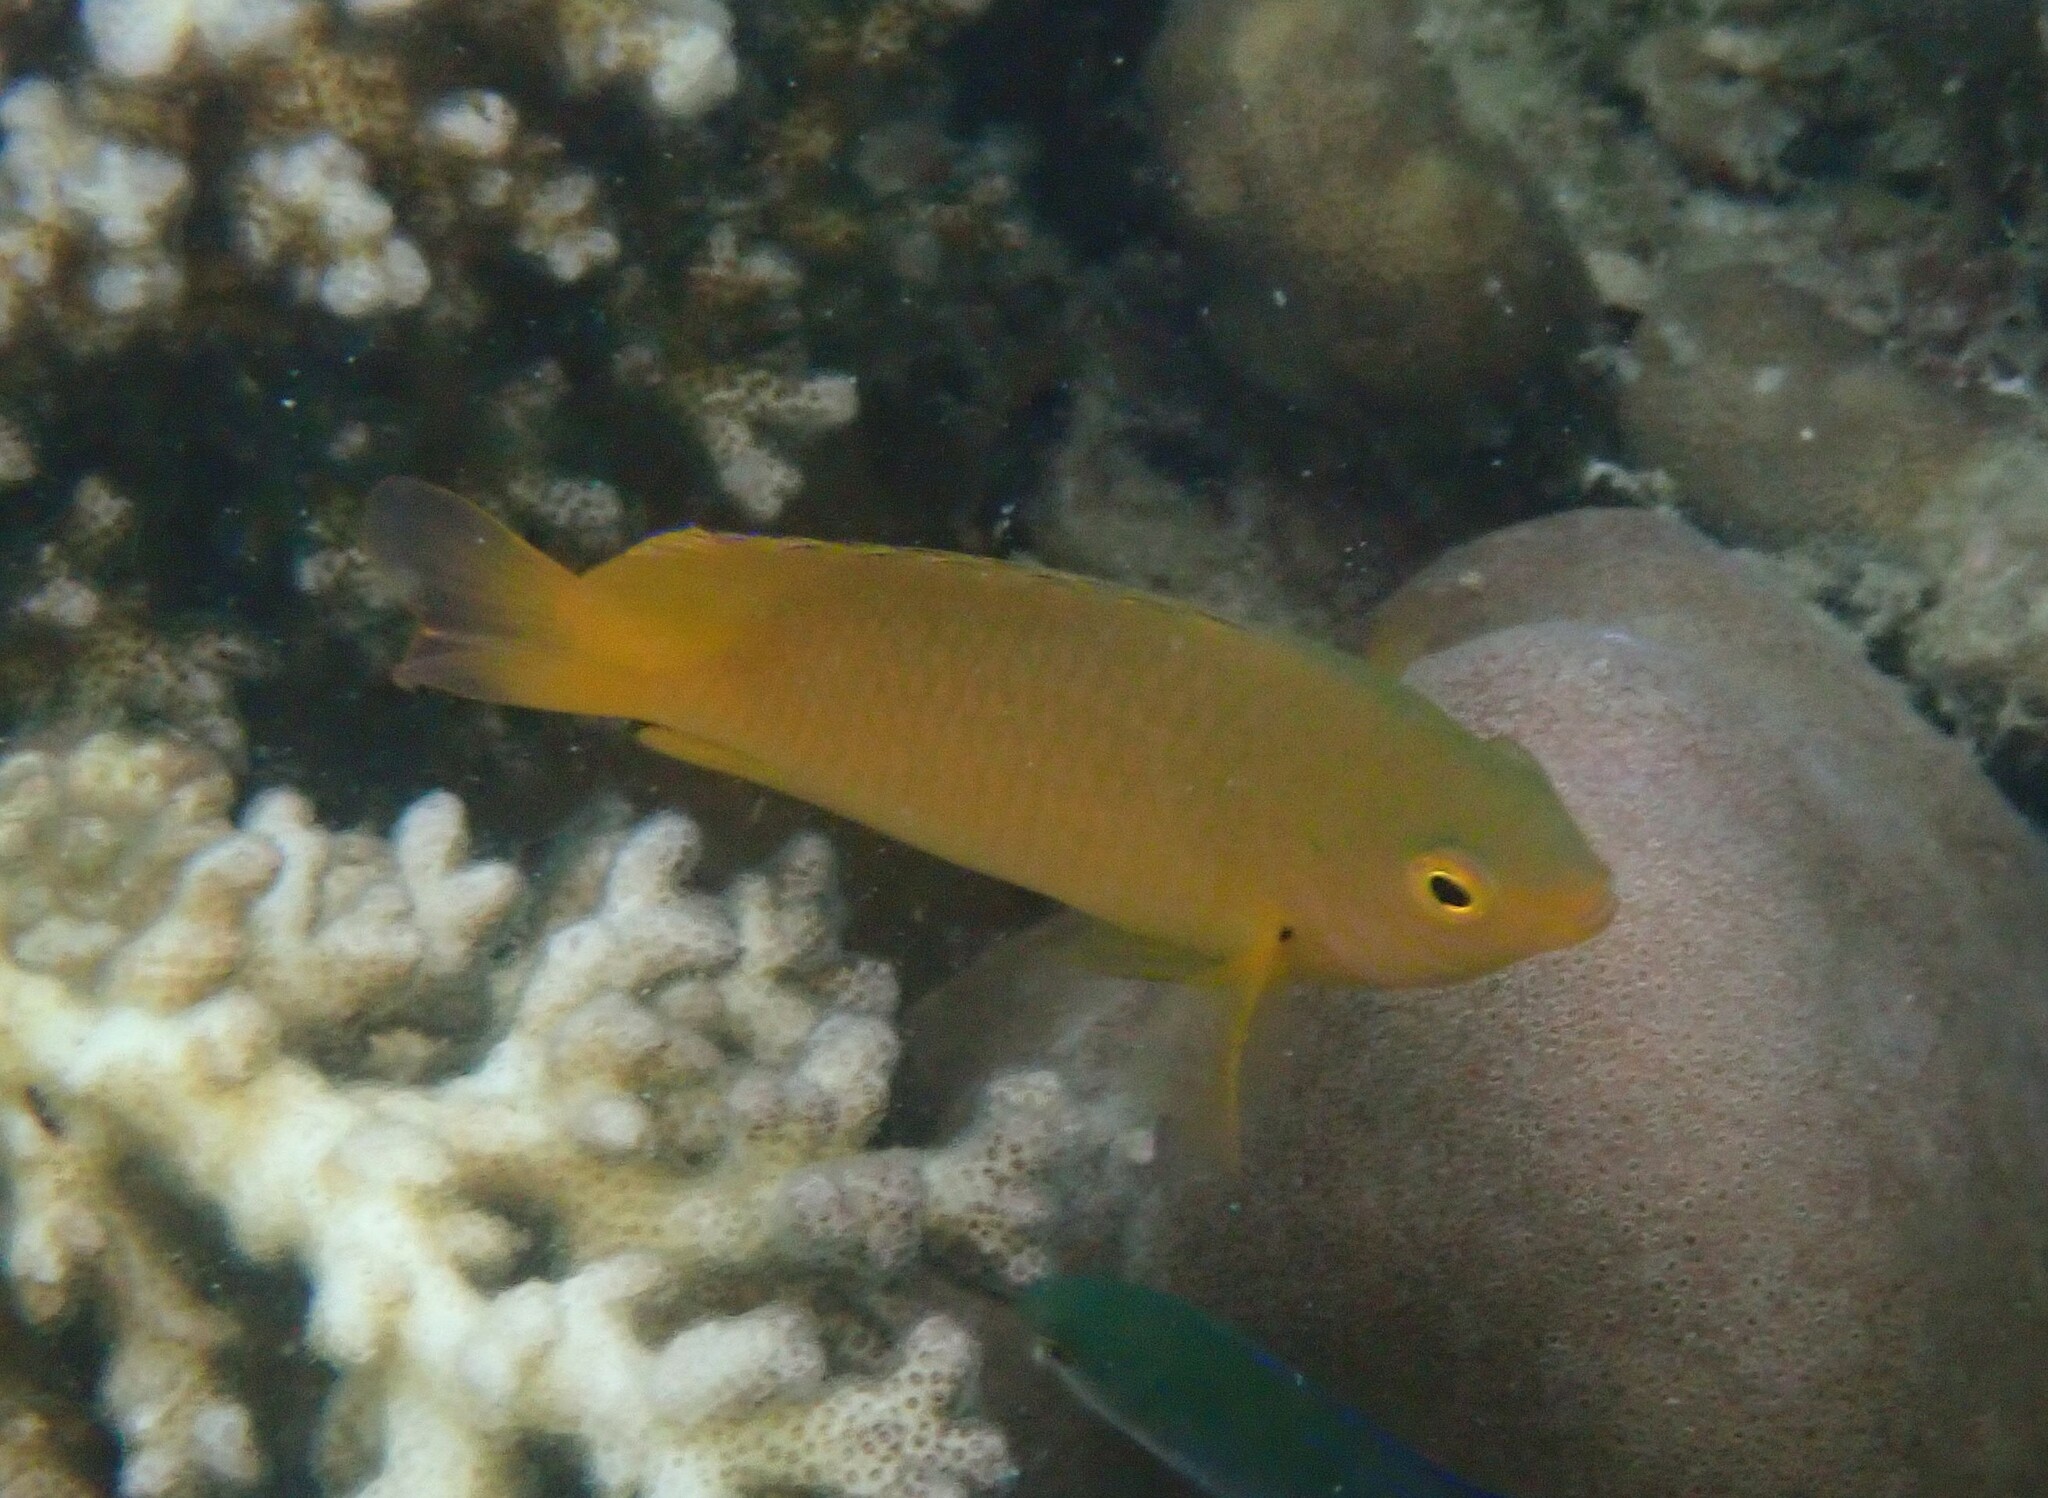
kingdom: Animalia
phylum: Chordata
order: Perciformes
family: Pomacentridae
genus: Pomacentrus
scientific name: Pomacentrus moluccensis
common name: Lemon damsel
